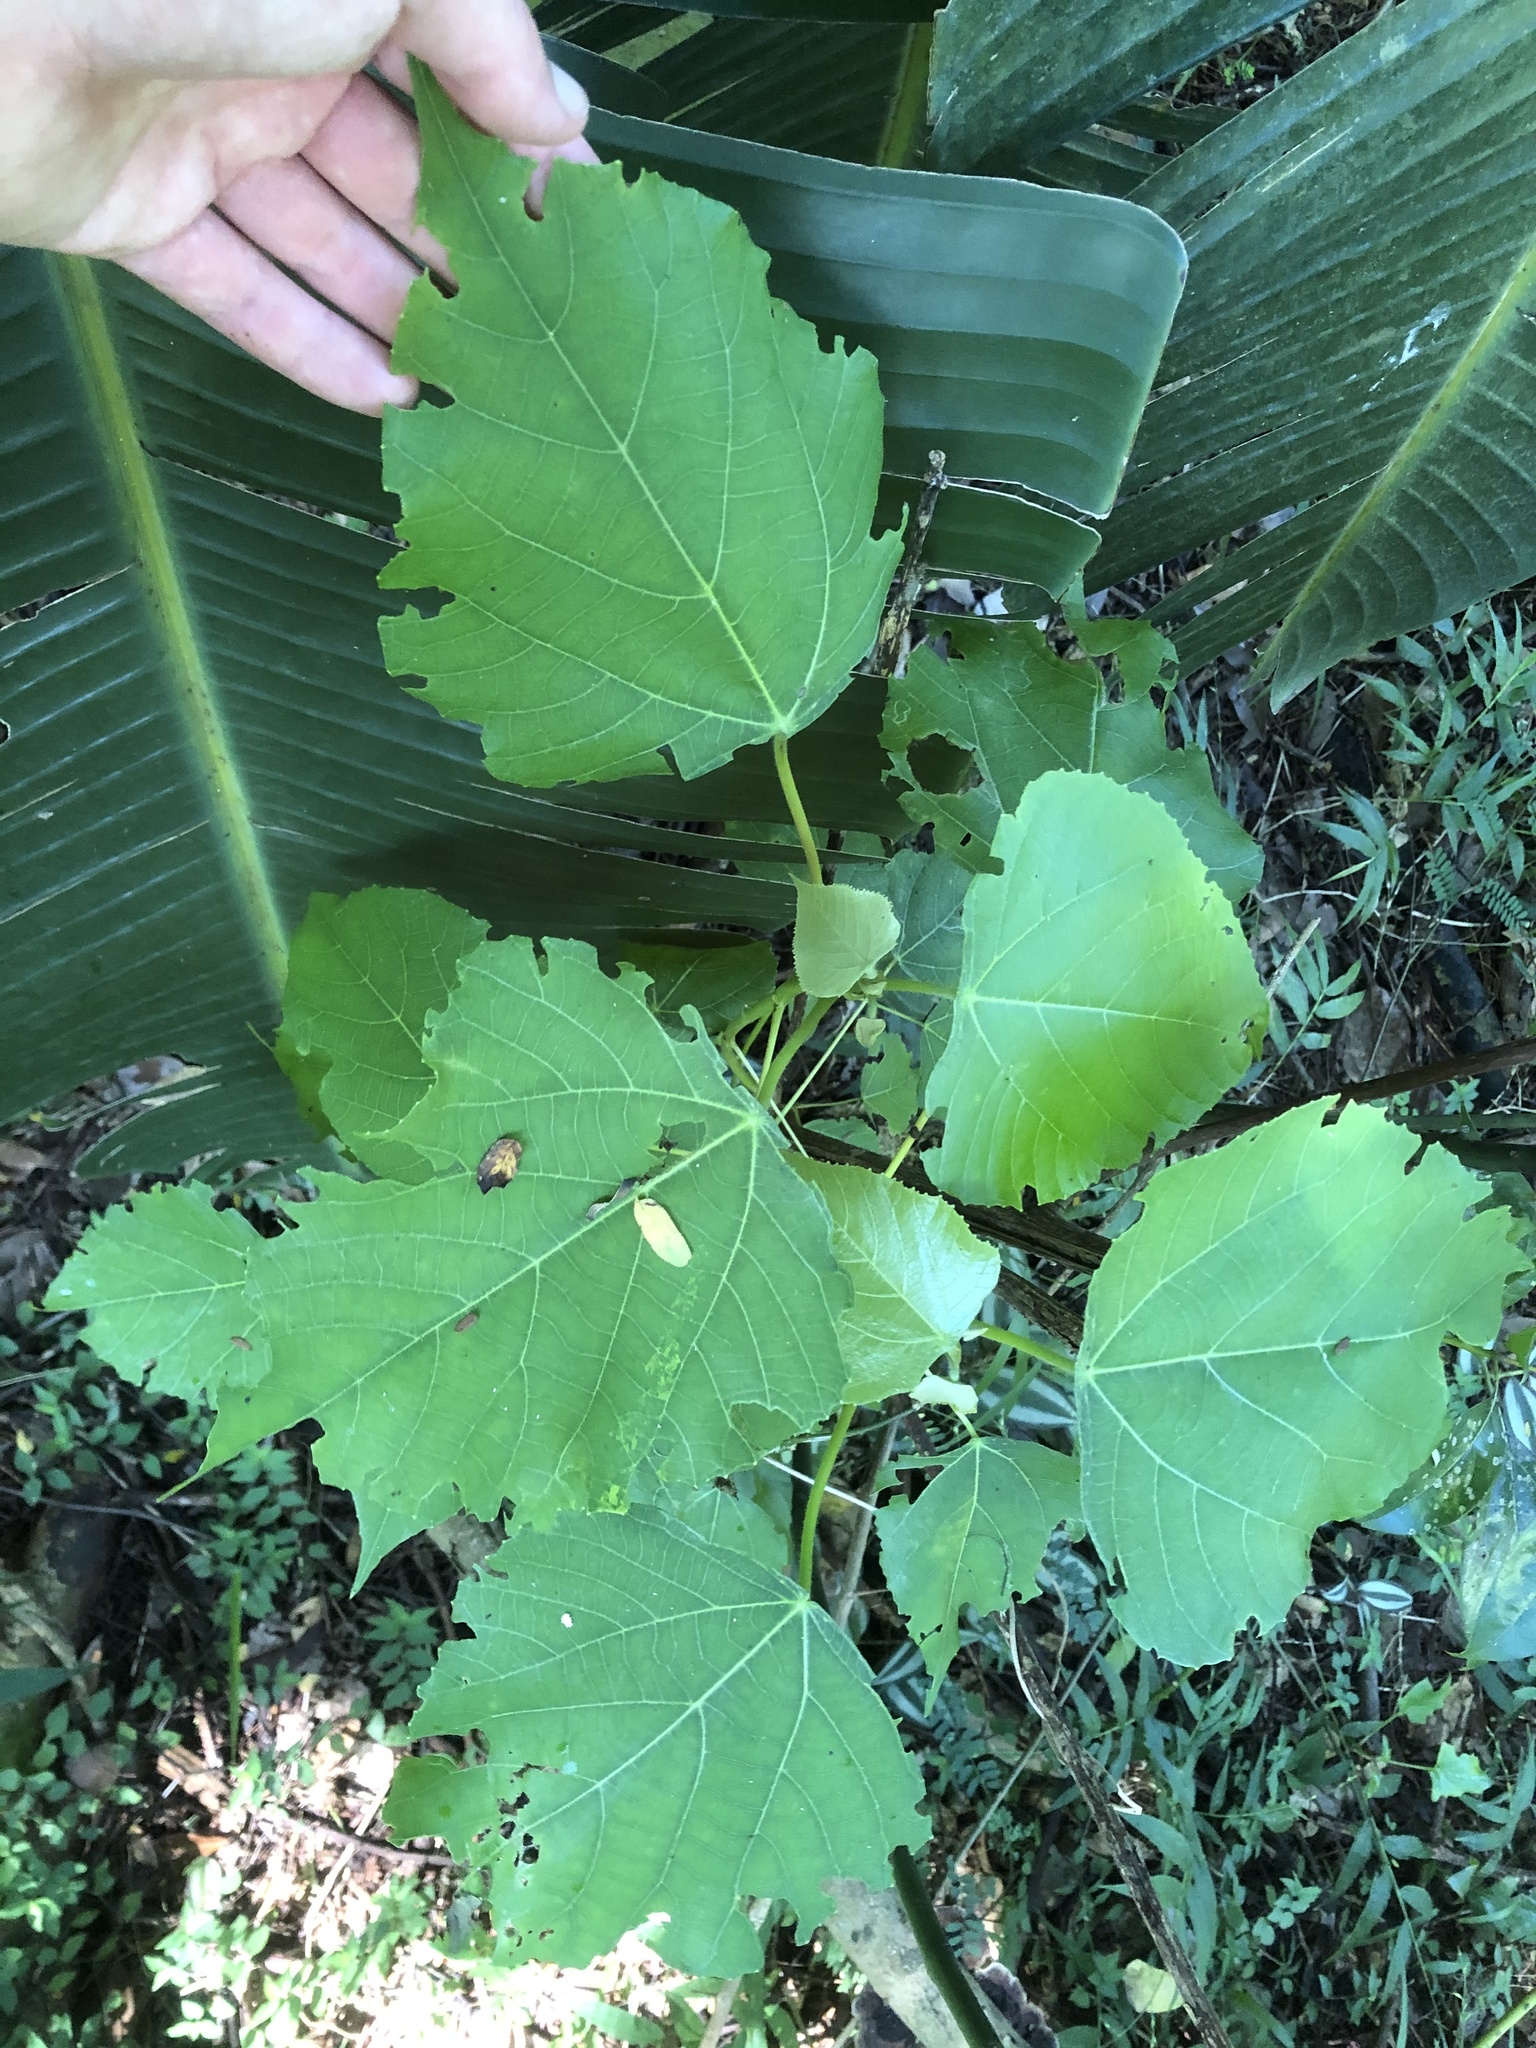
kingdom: Plantae
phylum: Tracheophyta
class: Magnoliopsida
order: Malpighiales
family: Euphorbiaceae
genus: Macaranga
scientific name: Macaranga capensis
